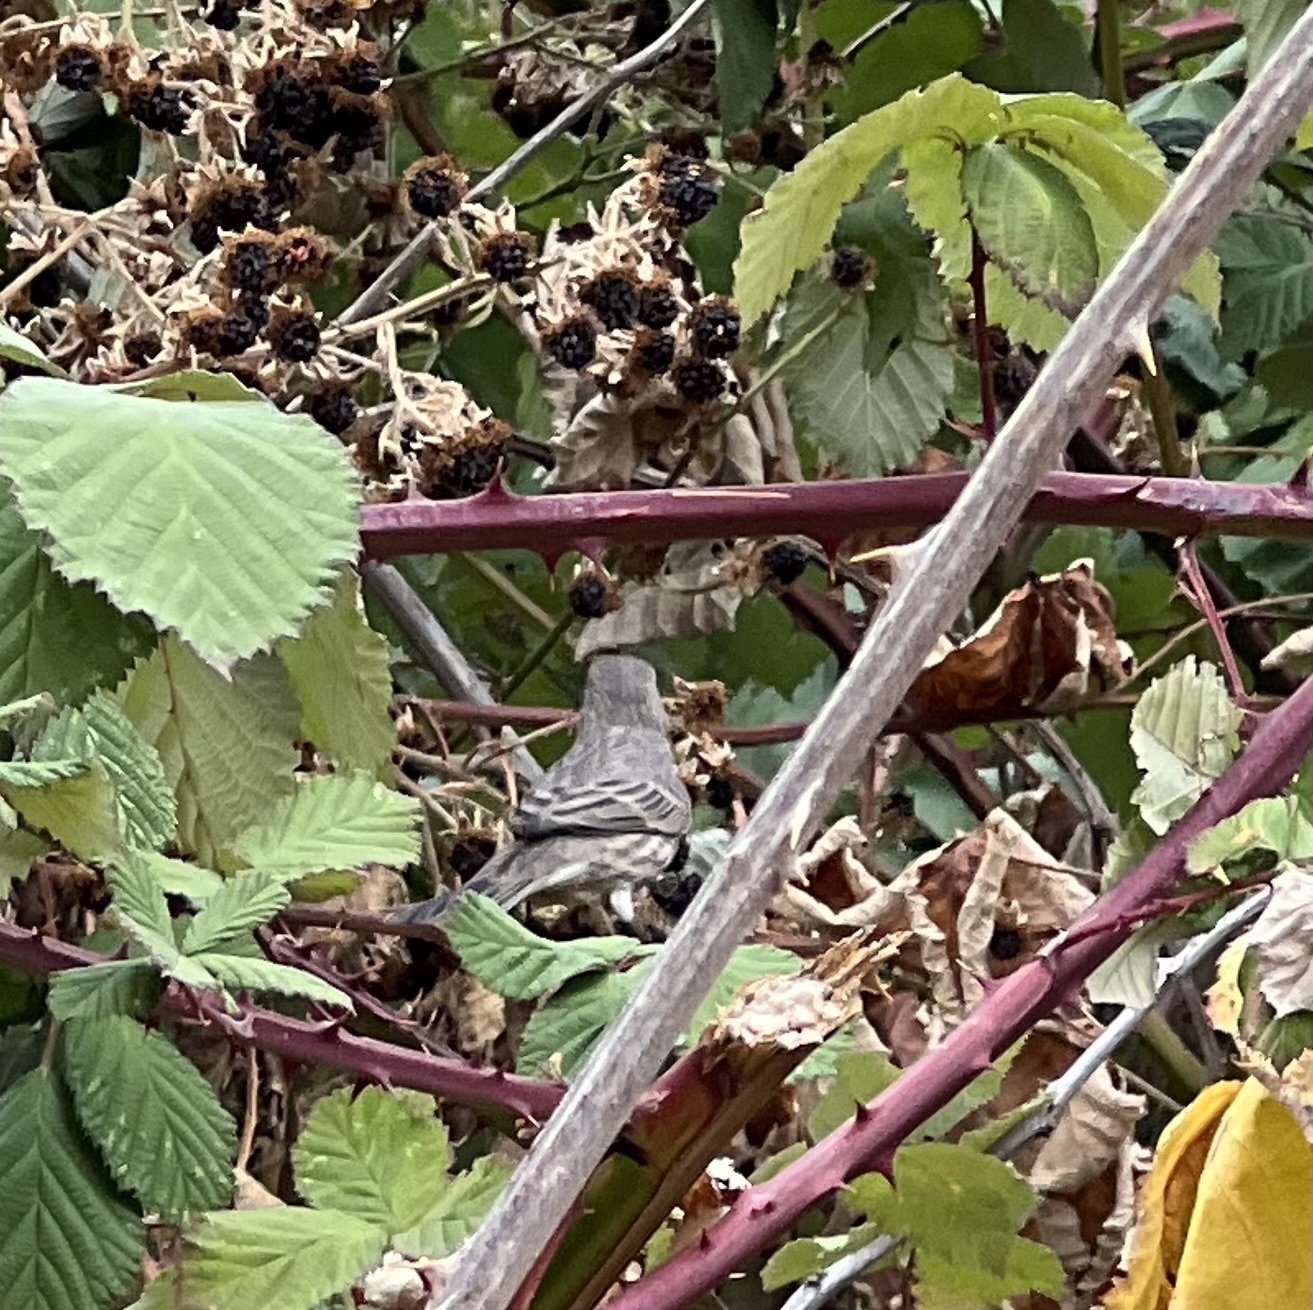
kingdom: Animalia
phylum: Chordata
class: Aves
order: Passeriformes
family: Fringillidae
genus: Haemorhous
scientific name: Haemorhous mexicanus
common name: House finch
